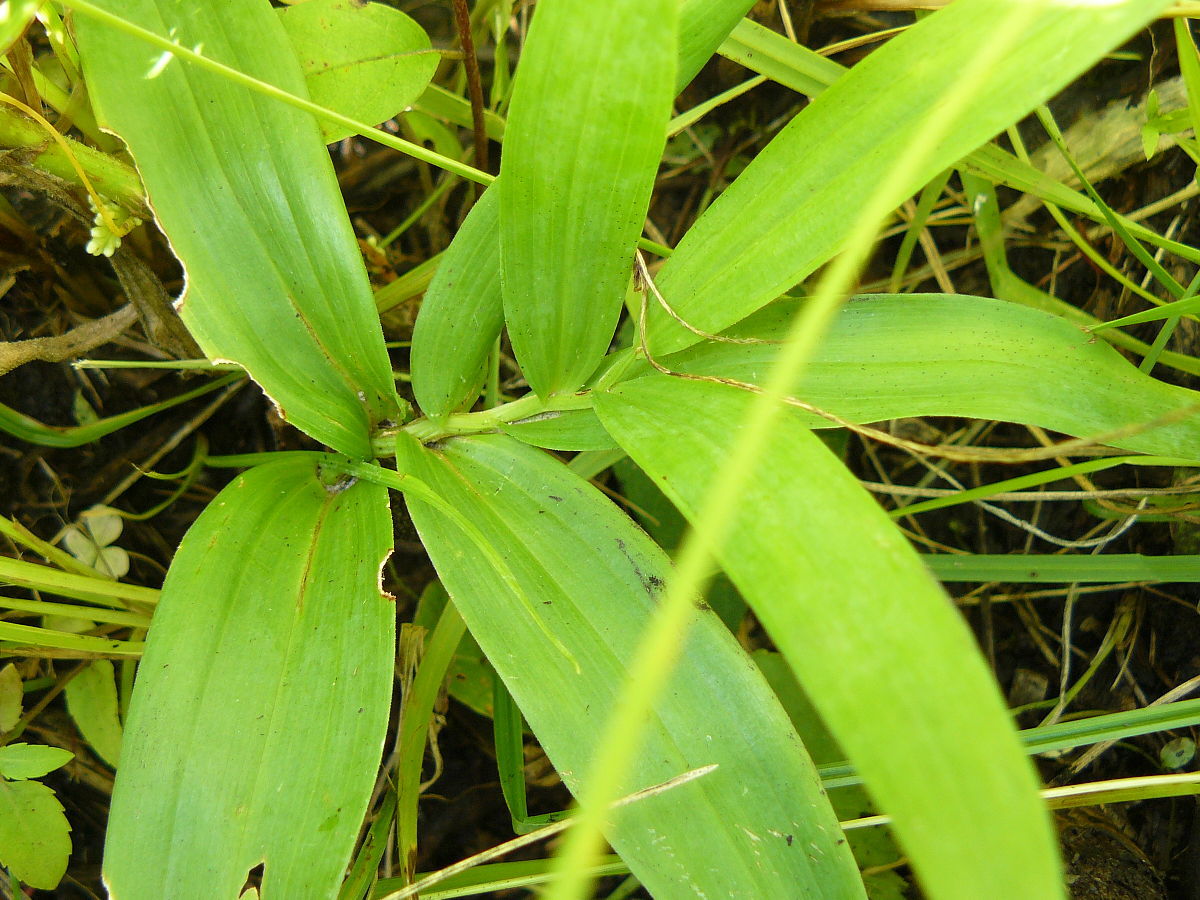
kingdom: Plantae
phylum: Tracheophyta
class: Liliopsida
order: Asparagales
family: Asparagaceae
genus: Maianthemum
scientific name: Maianthemum stellatum
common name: Little false solomon's seal
